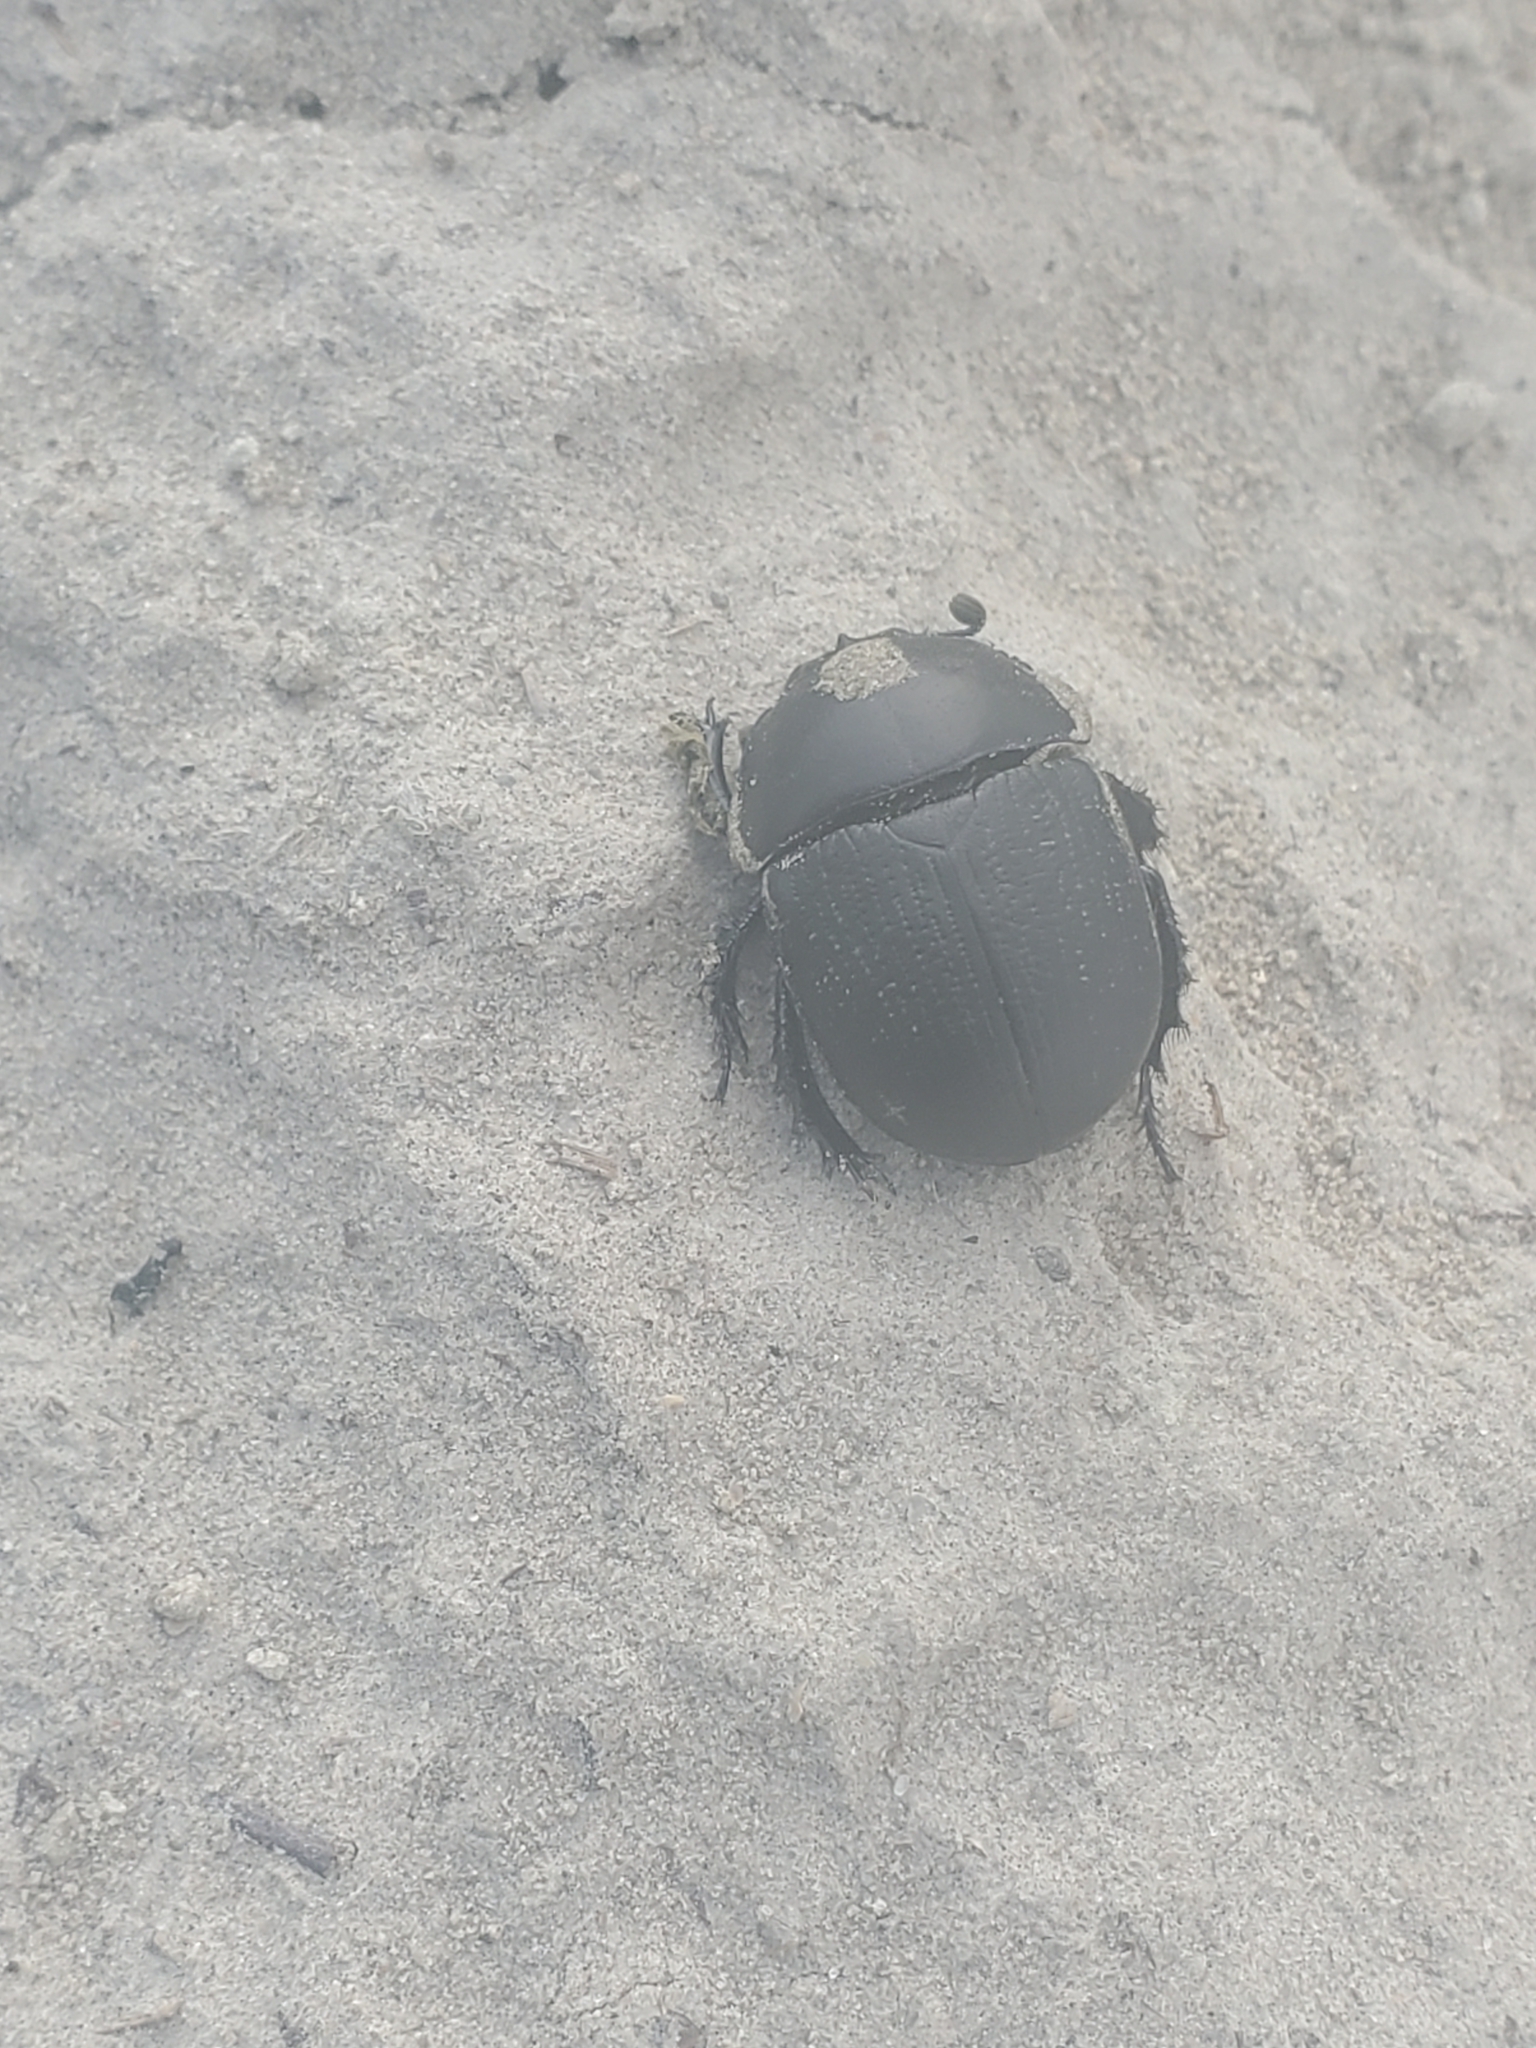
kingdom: Animalia
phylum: Arthropoda
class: Insecta
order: Coleoptera
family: Geotrupidae
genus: Geohowdenius
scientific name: Geohowdenius opacus
